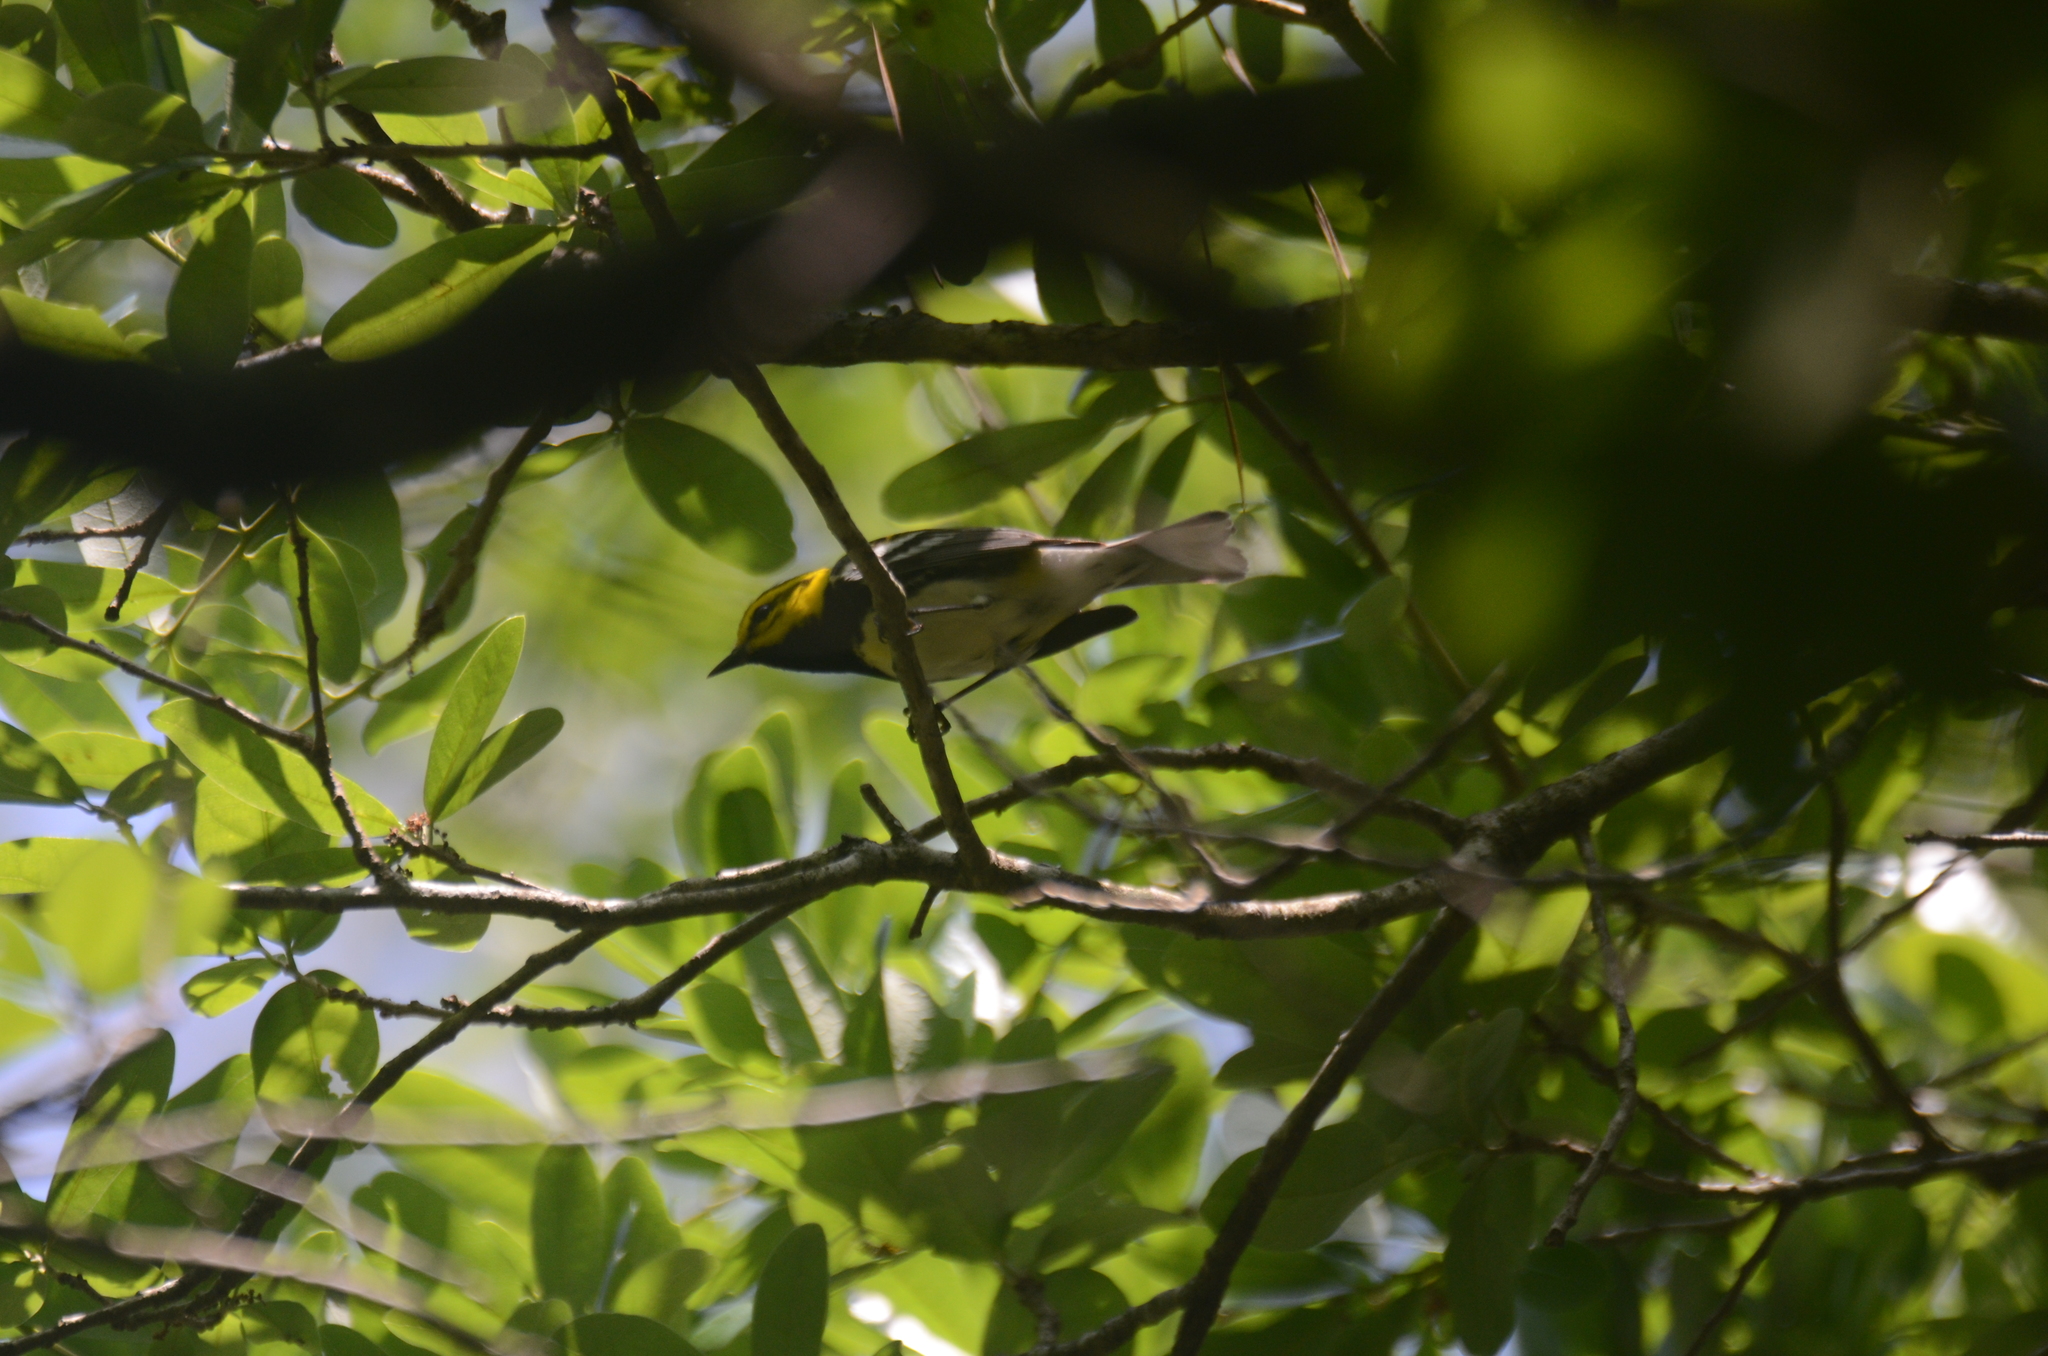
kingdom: Animalia
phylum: Chordata
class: Aves
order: Passeriformes
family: Parulidae
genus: Setophaga
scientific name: Setophaga virens
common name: Black-throated green warbler
